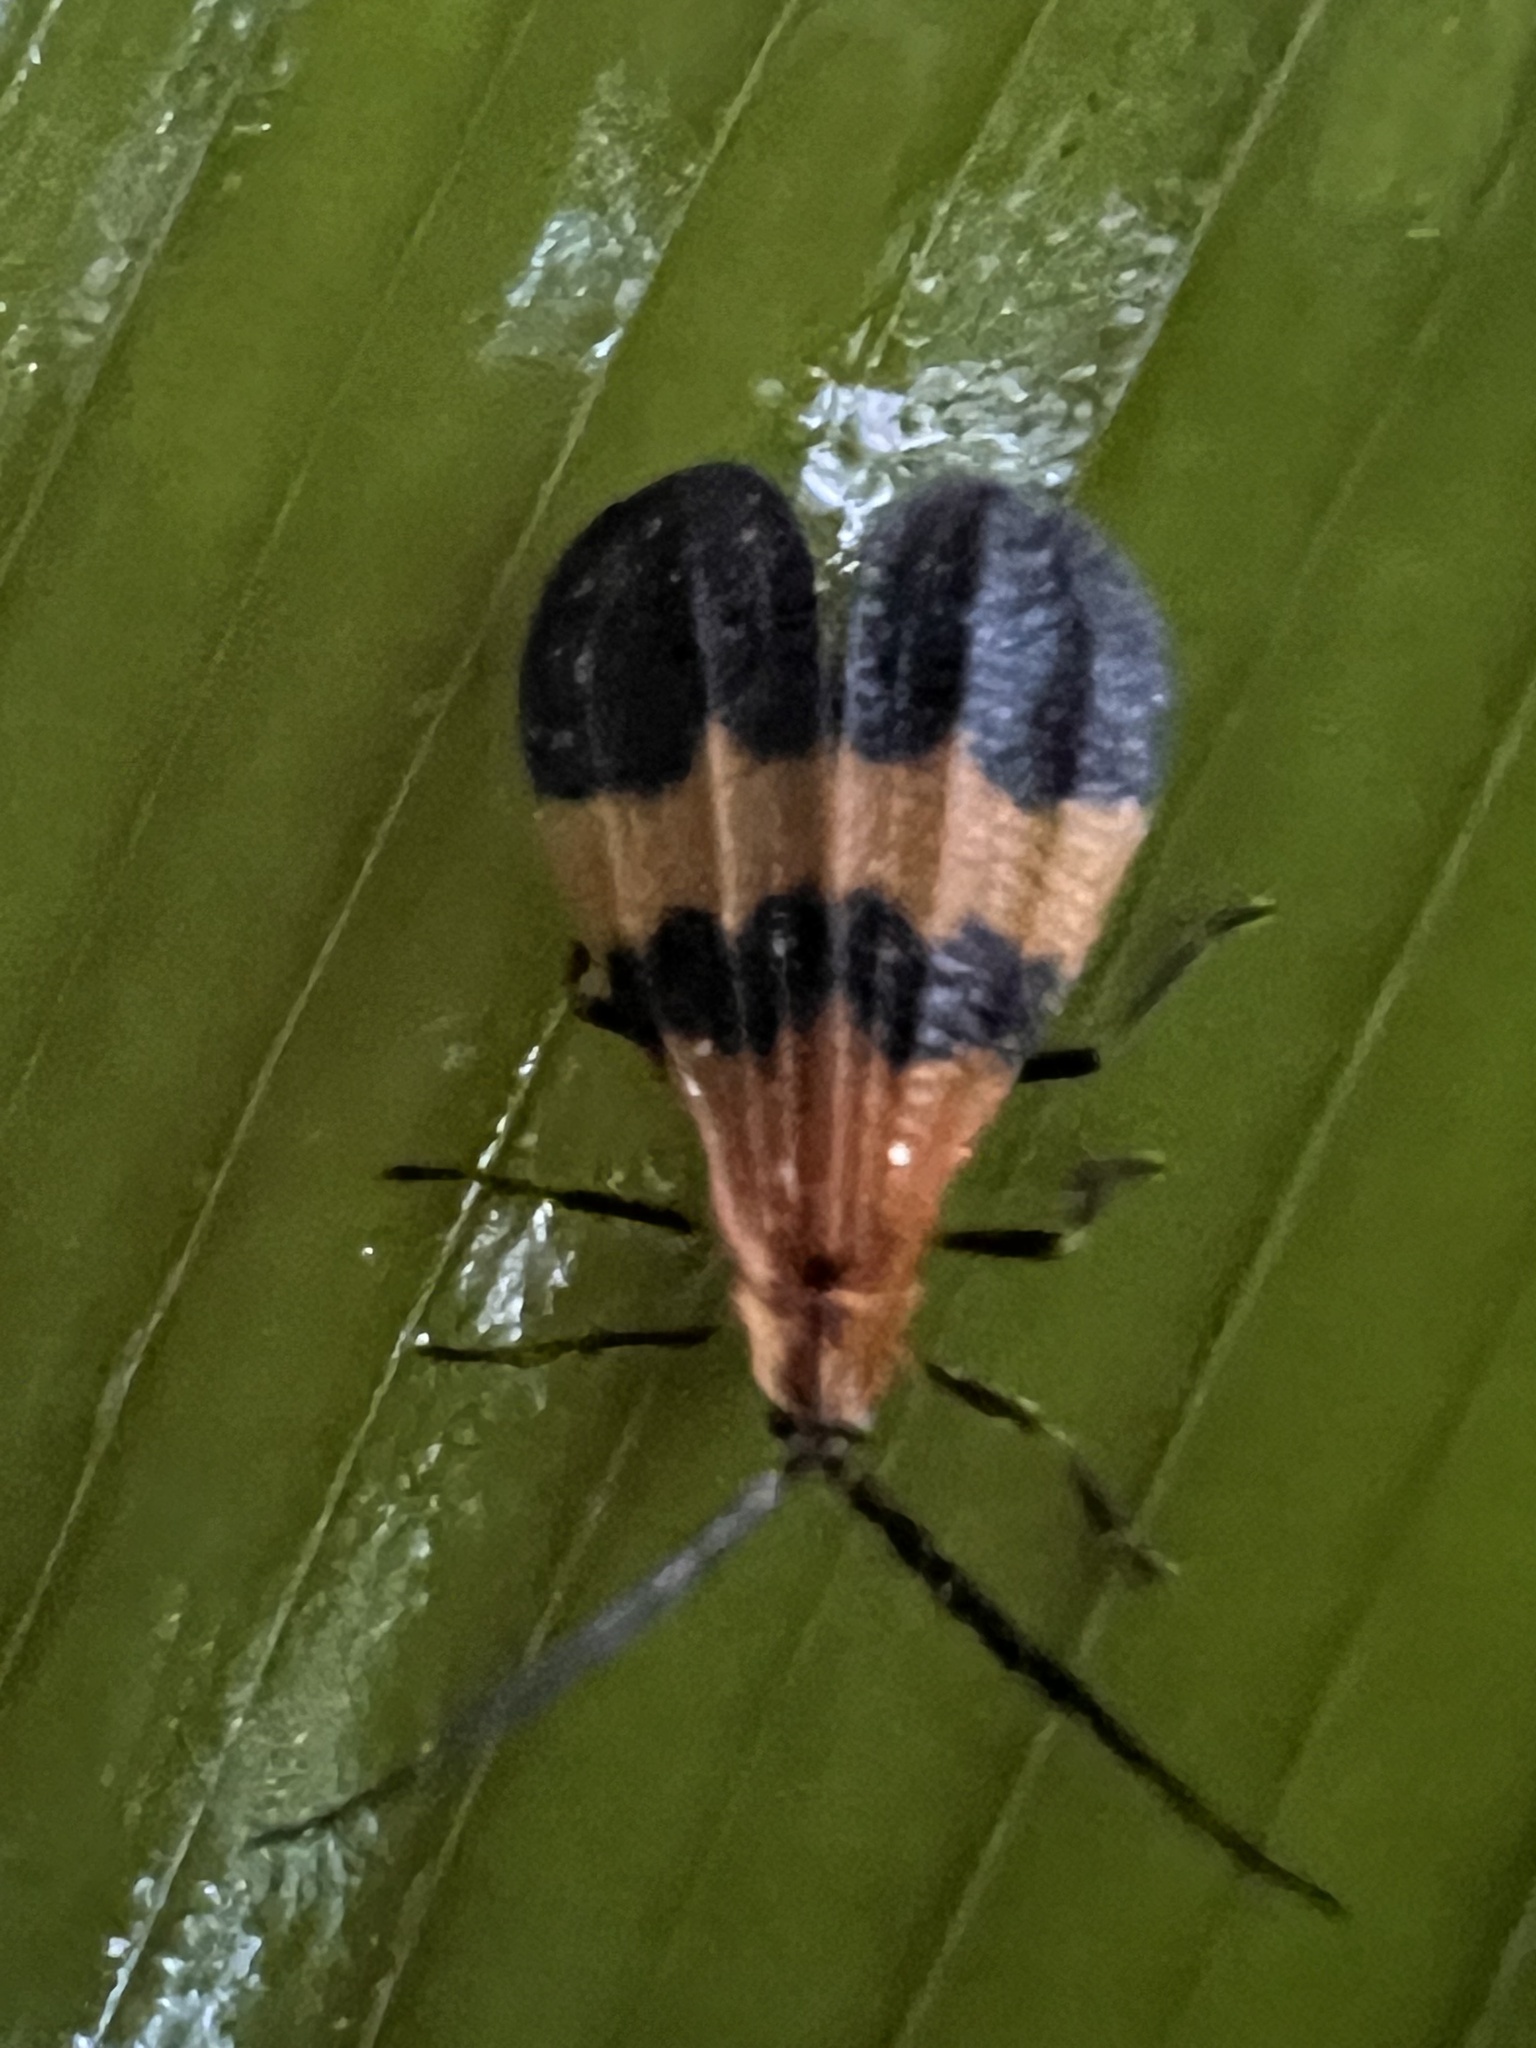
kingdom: Animalia
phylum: Arthropoda
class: Insecta
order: Coleoptera
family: Lycidae
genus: Calopteron
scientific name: Calopteron
